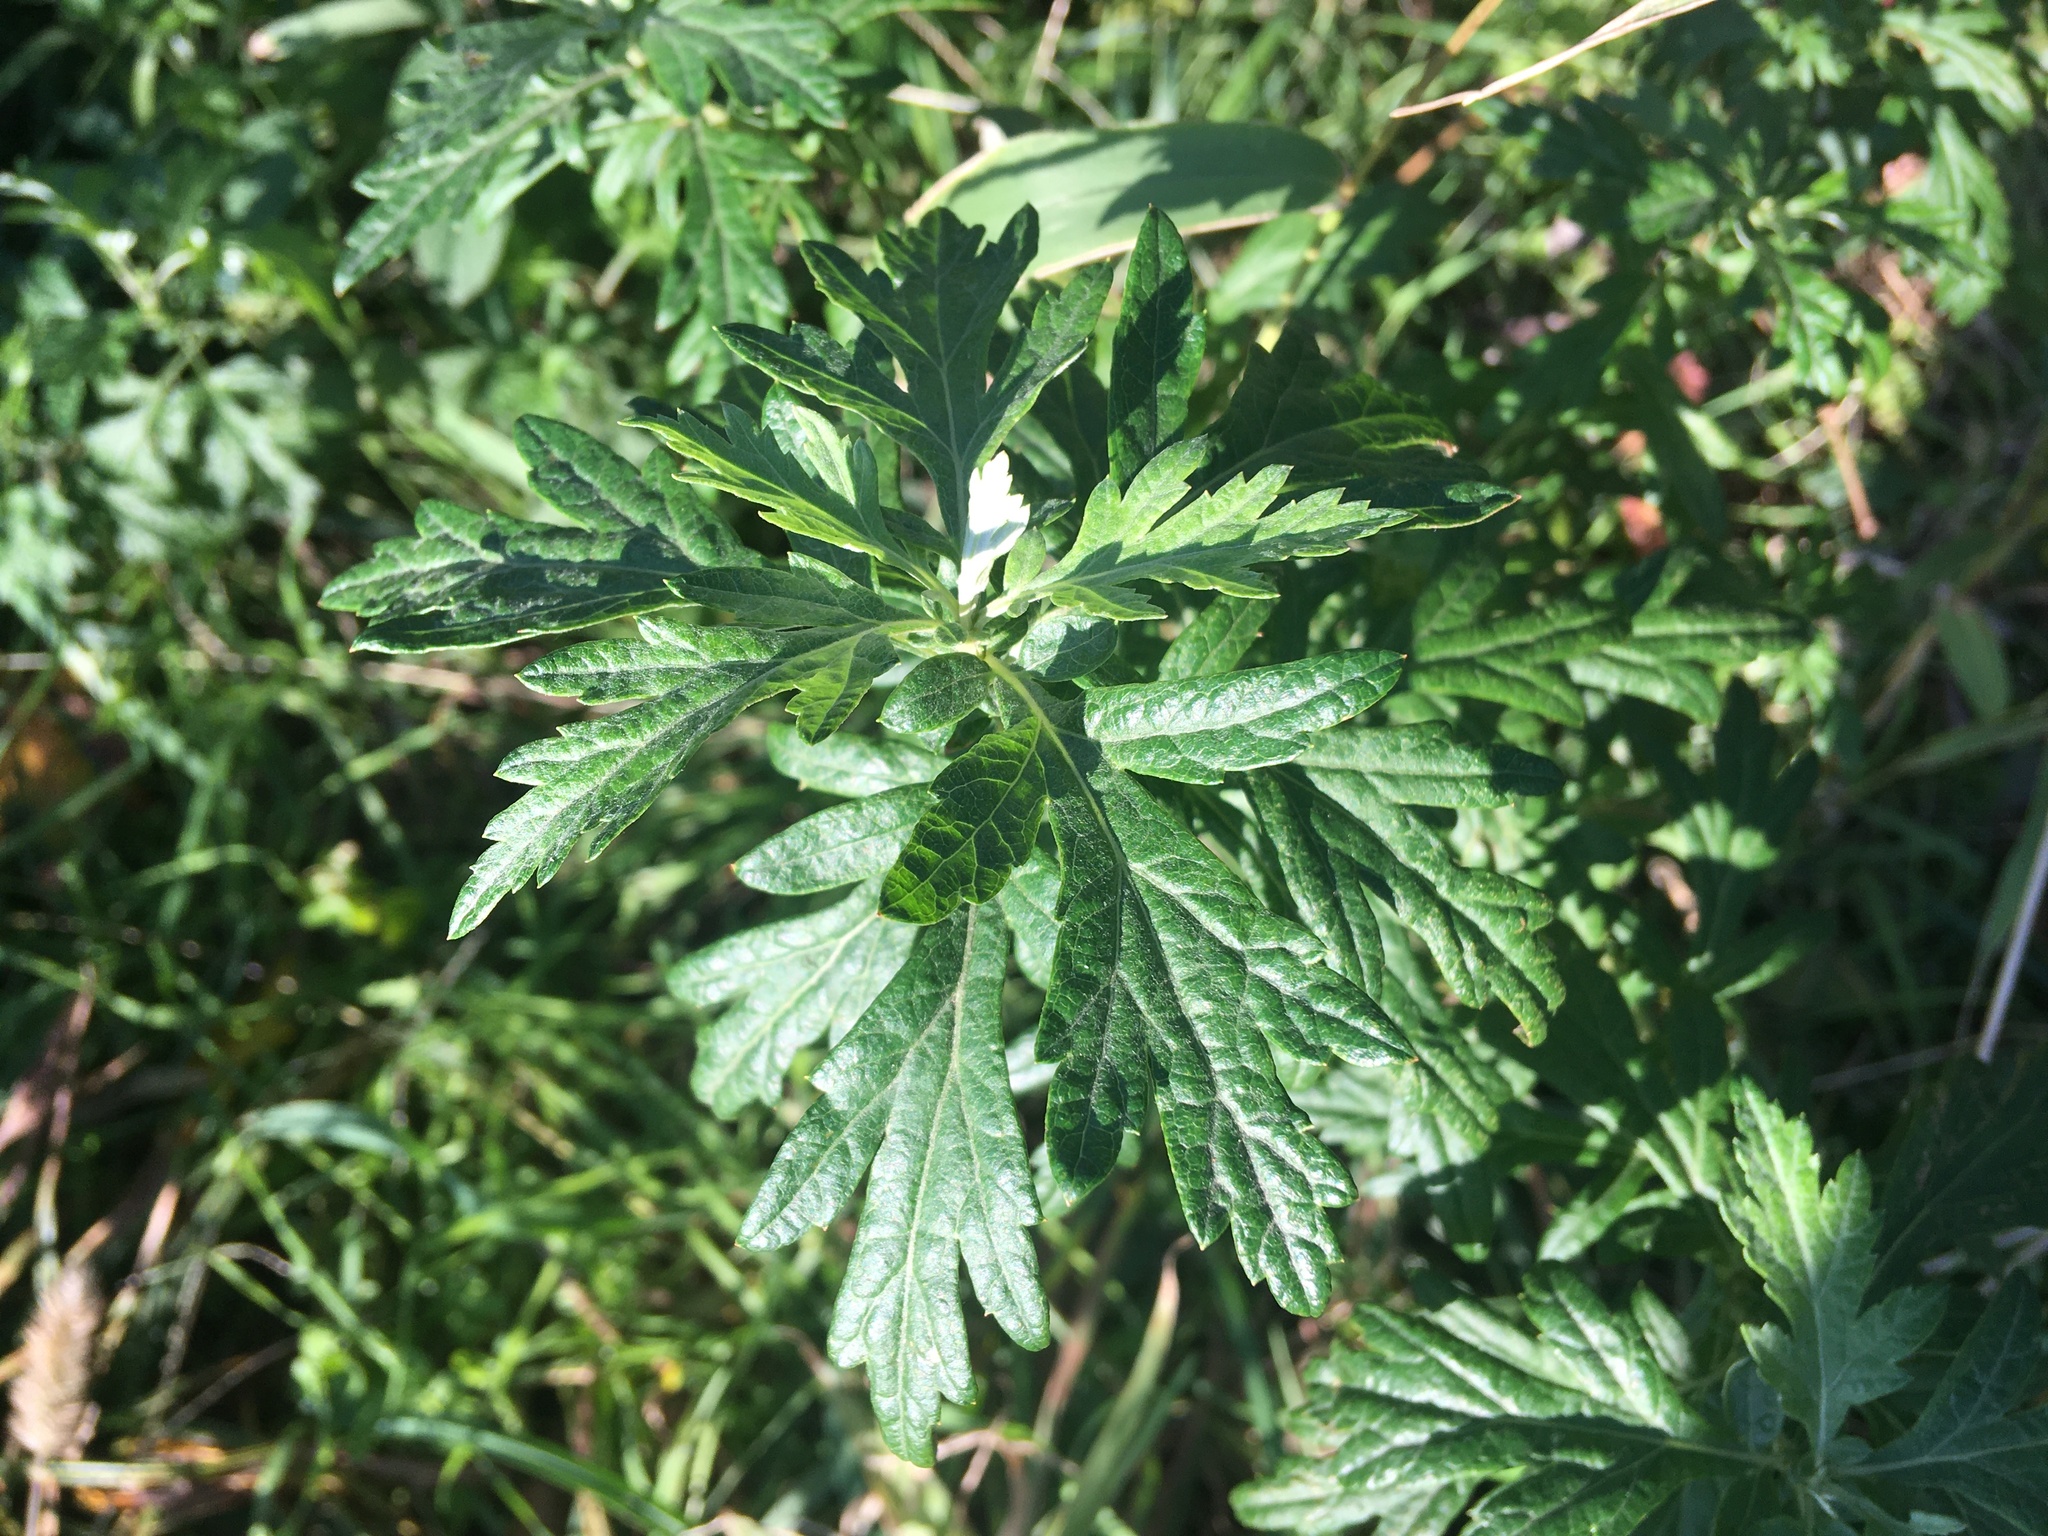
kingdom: Plantae
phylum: Tracheophyta
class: Magnoliopsida
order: Asterales
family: Asteraceae
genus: Artemisia
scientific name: Artemisia vulgaris
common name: Mugwort
